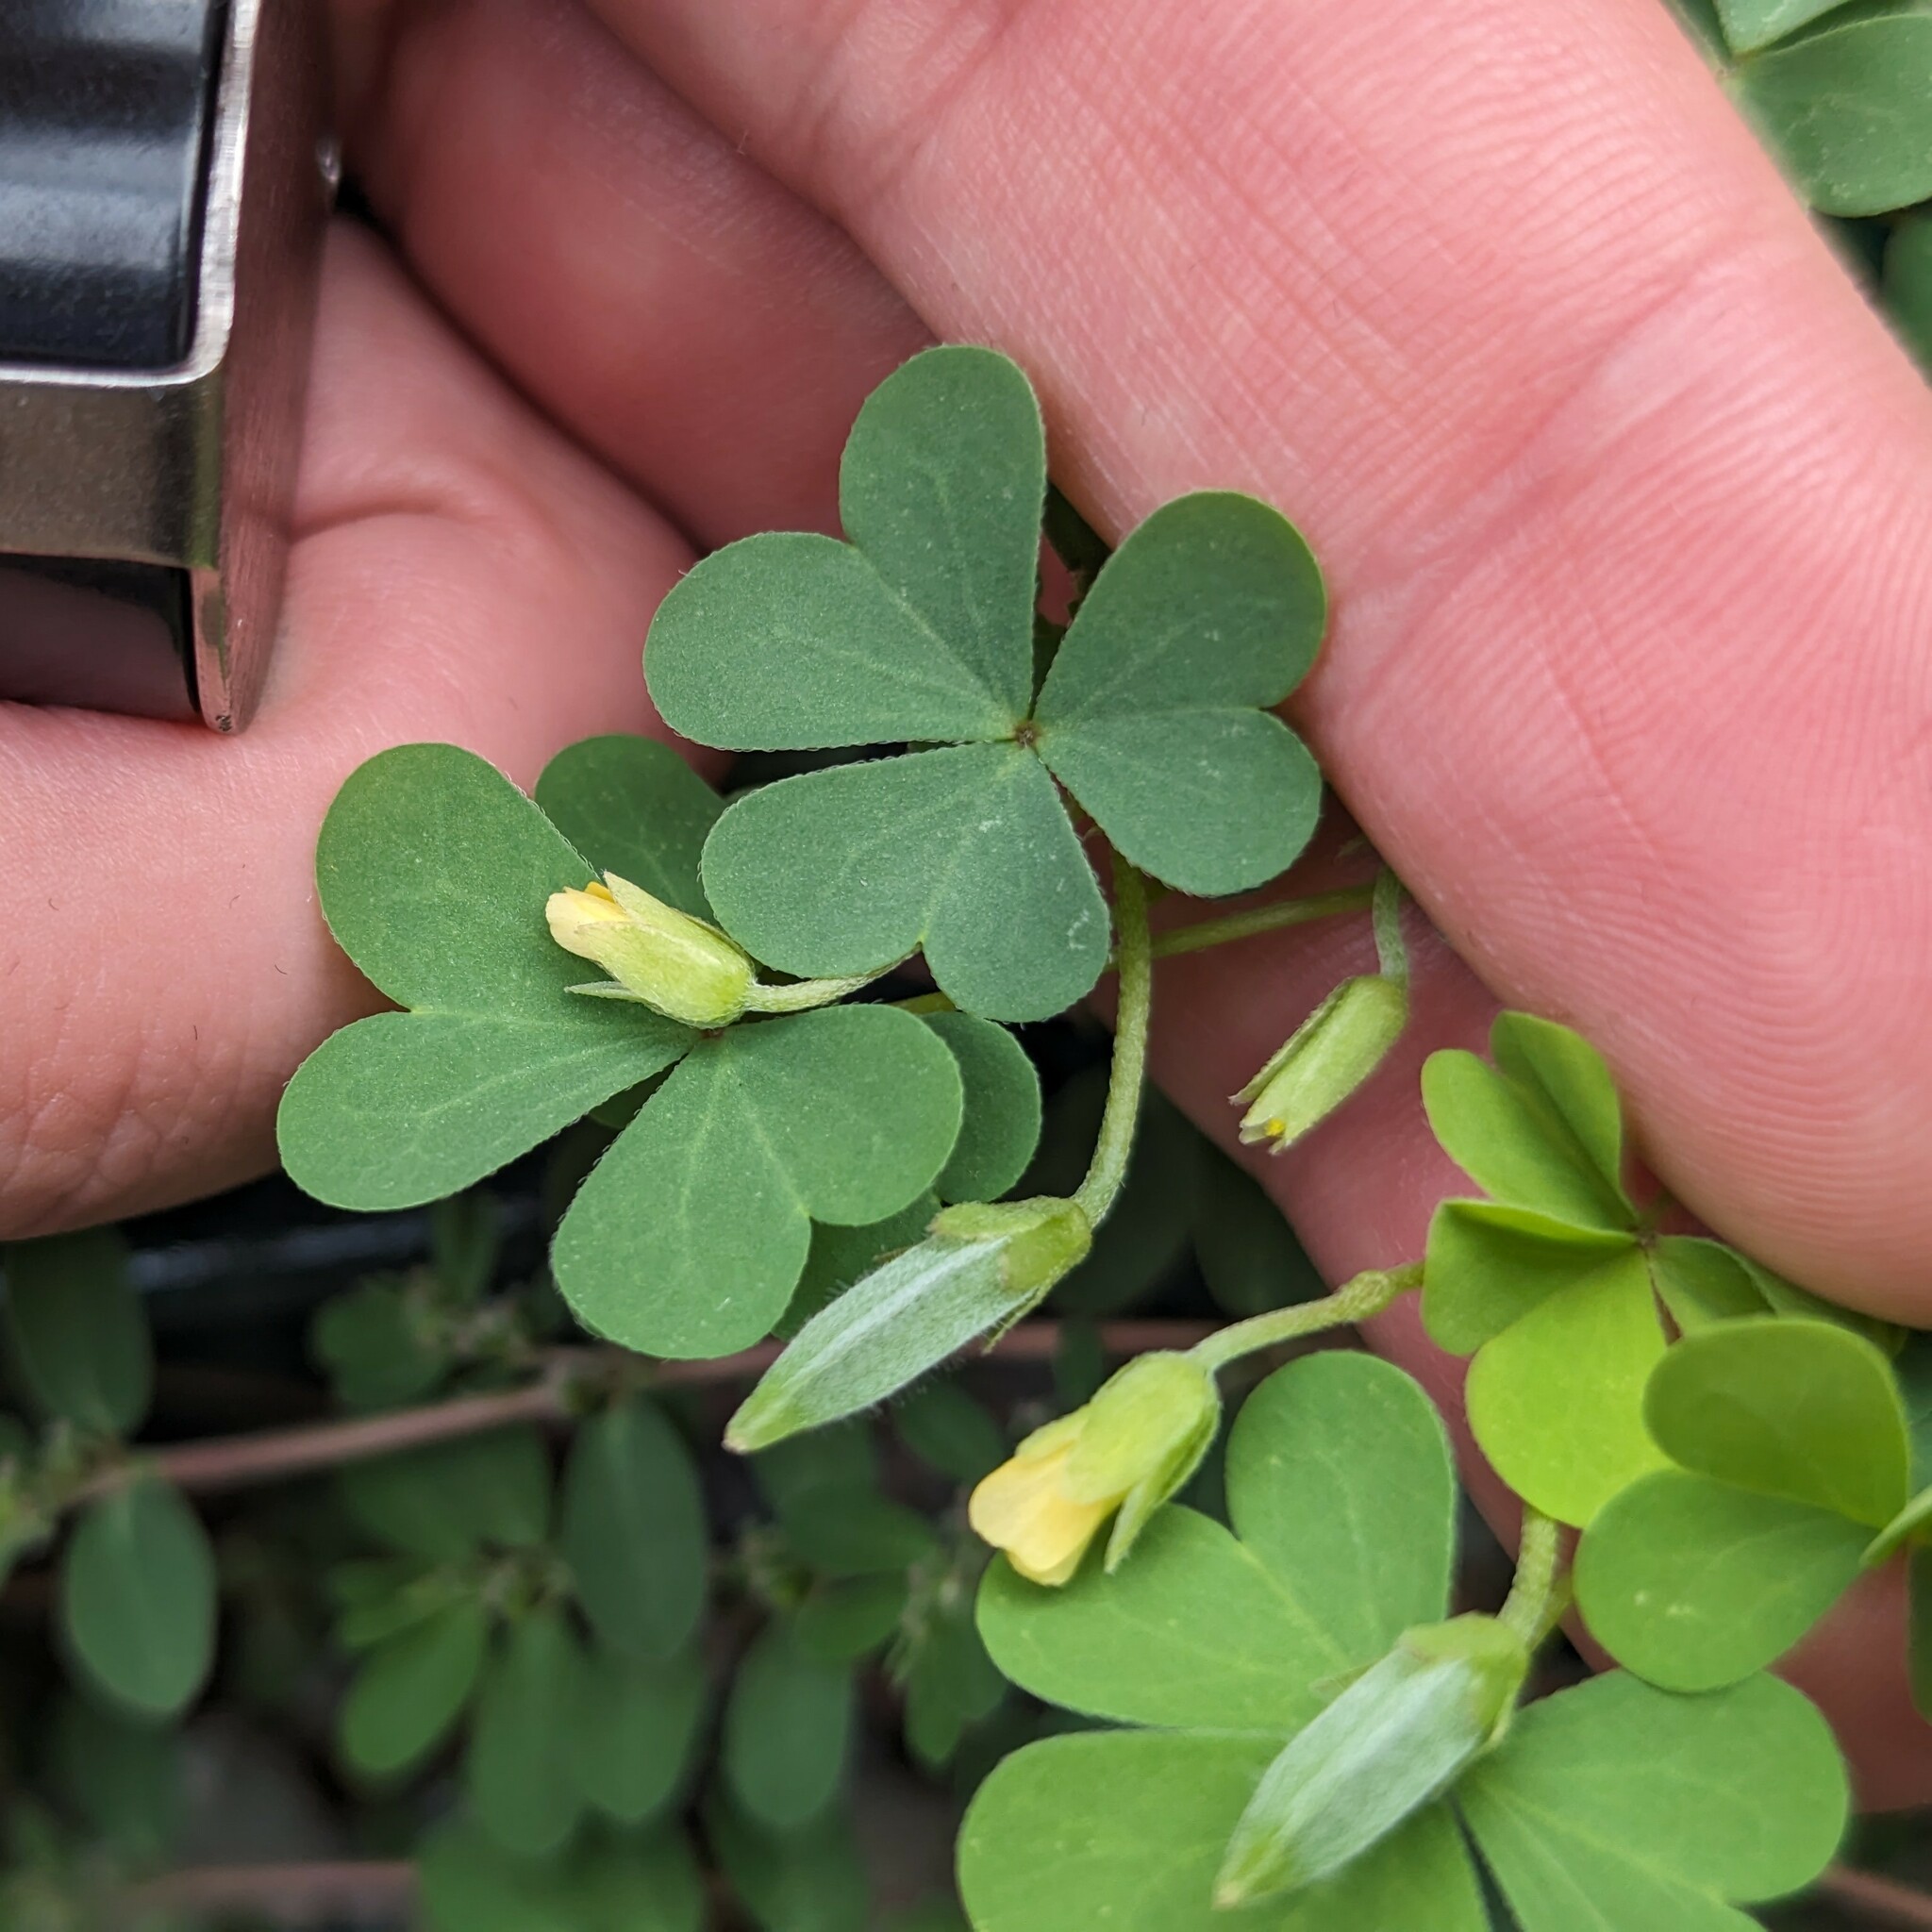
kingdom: Plantae
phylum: Tracheophyta
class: Magnoliopsida
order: Oxalidales
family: Oxalidaceae
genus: Oxalis
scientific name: Oxalis dillenii
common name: Sussex yellow-sorrel
